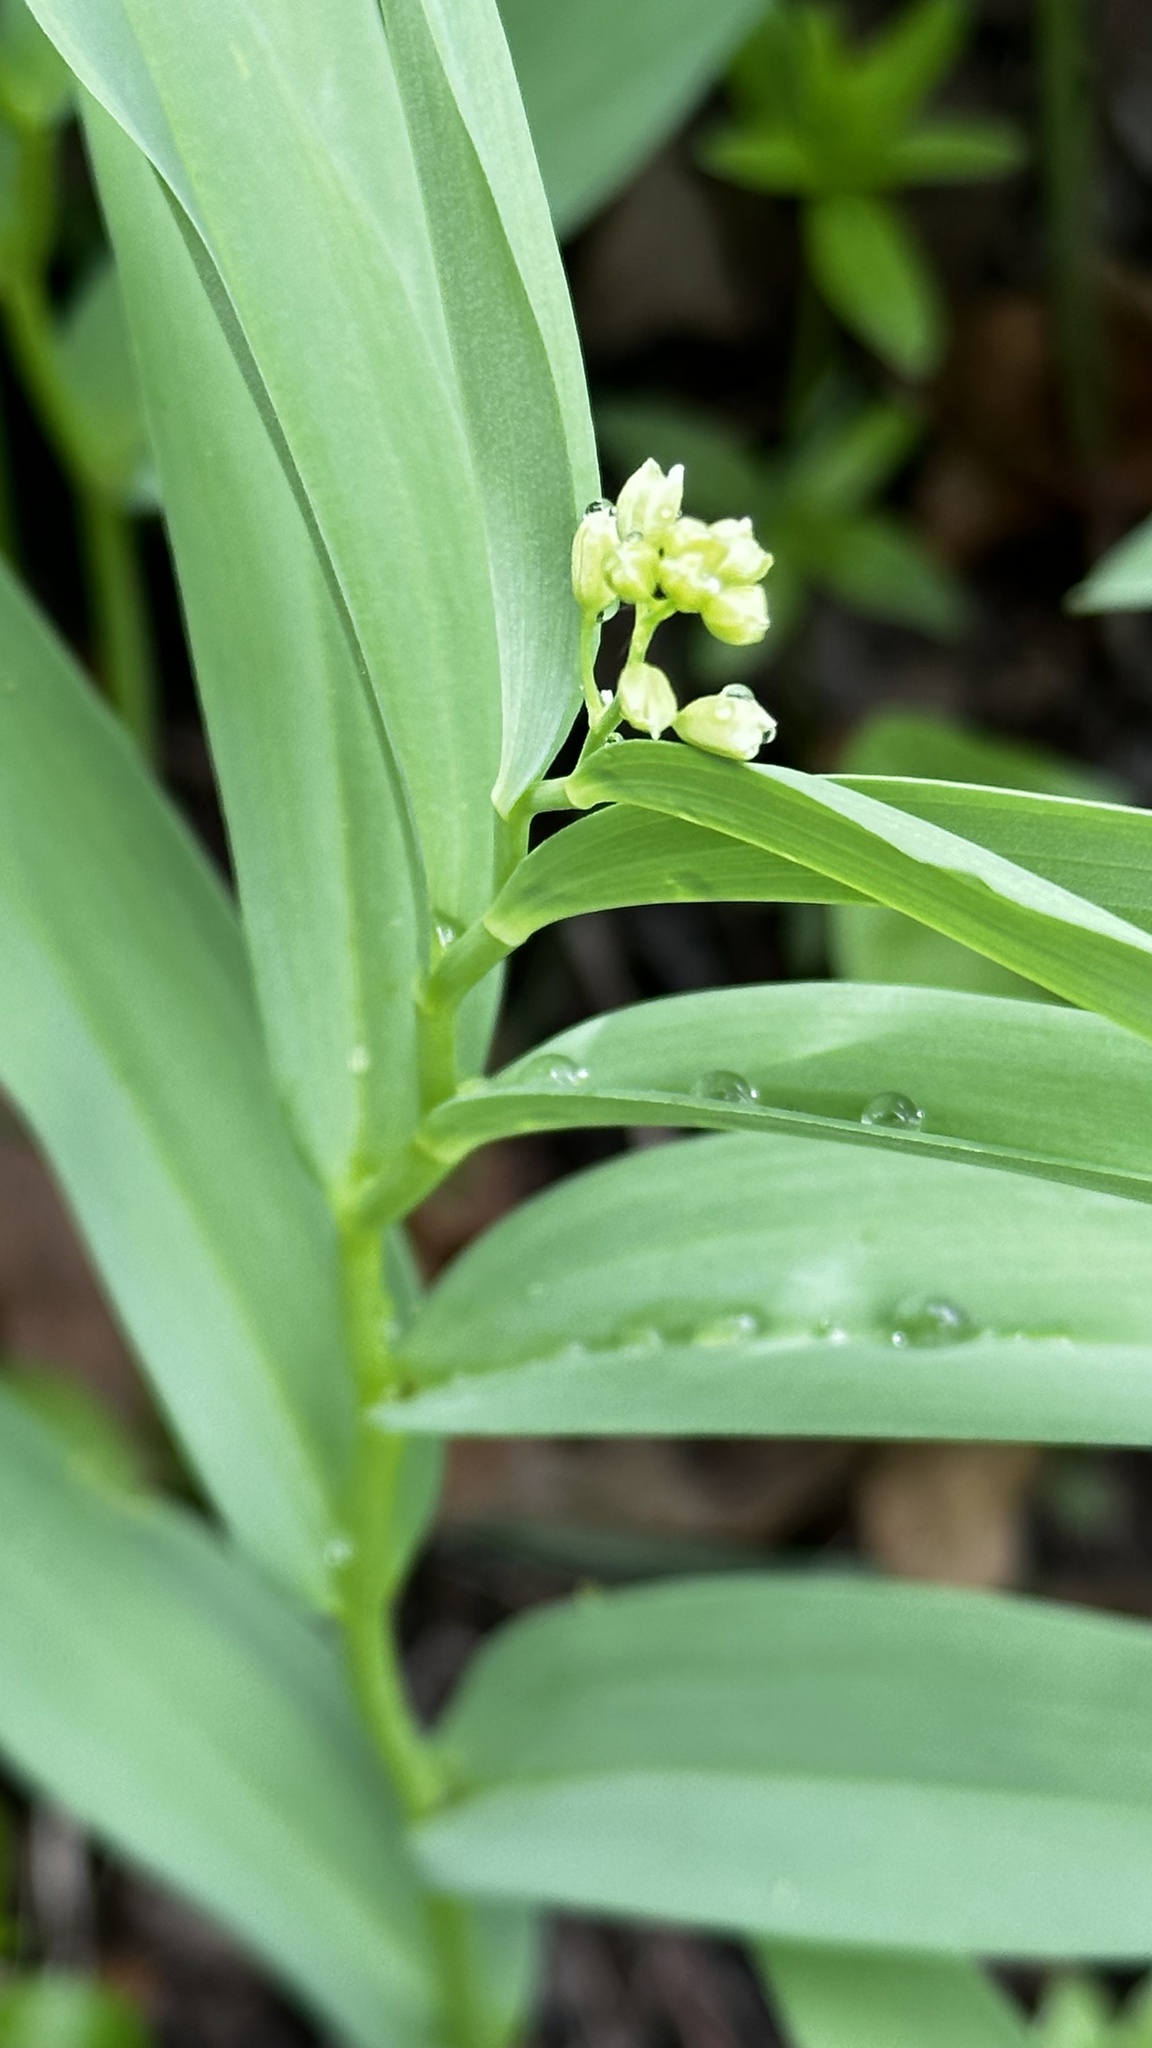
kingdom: Plantae
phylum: Tracheophyta
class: Liliopsida
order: Asparagales
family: Asparagaceae
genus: Maianthemum
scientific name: Maianthemum stellatum
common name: Little false solomon's seal
